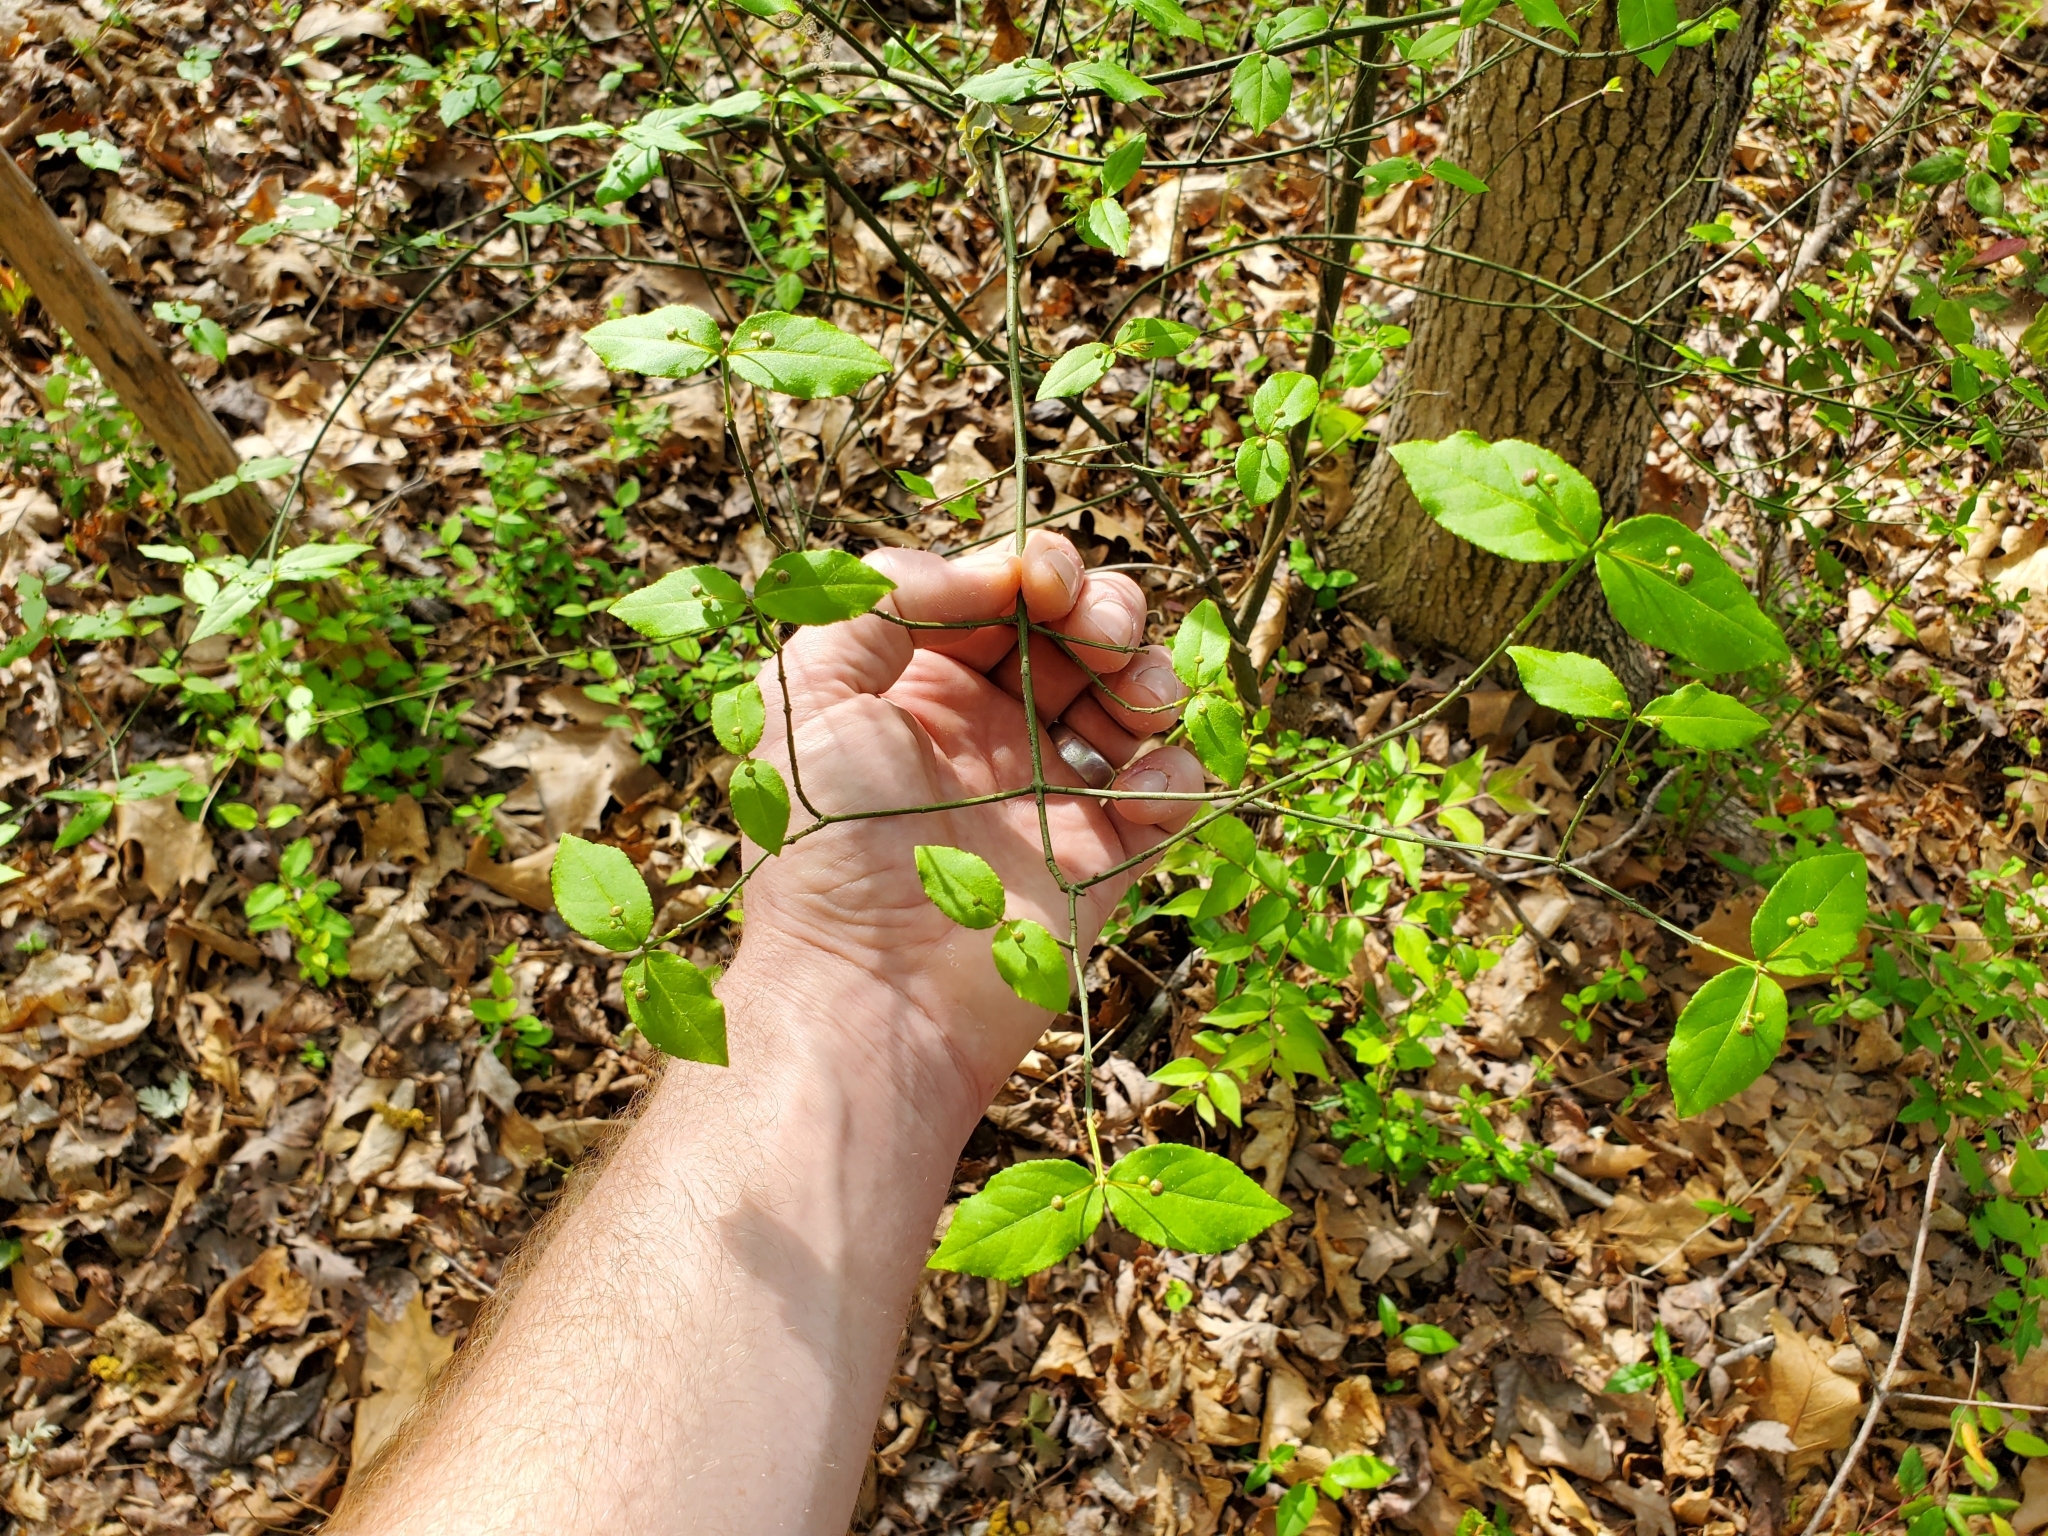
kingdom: Plantae
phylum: Tracheophyta
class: Magnoliopsida
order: Celastrales
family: Celastraceae
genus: Euonymus
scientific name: Euonymus americanus
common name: Bursting-heart
